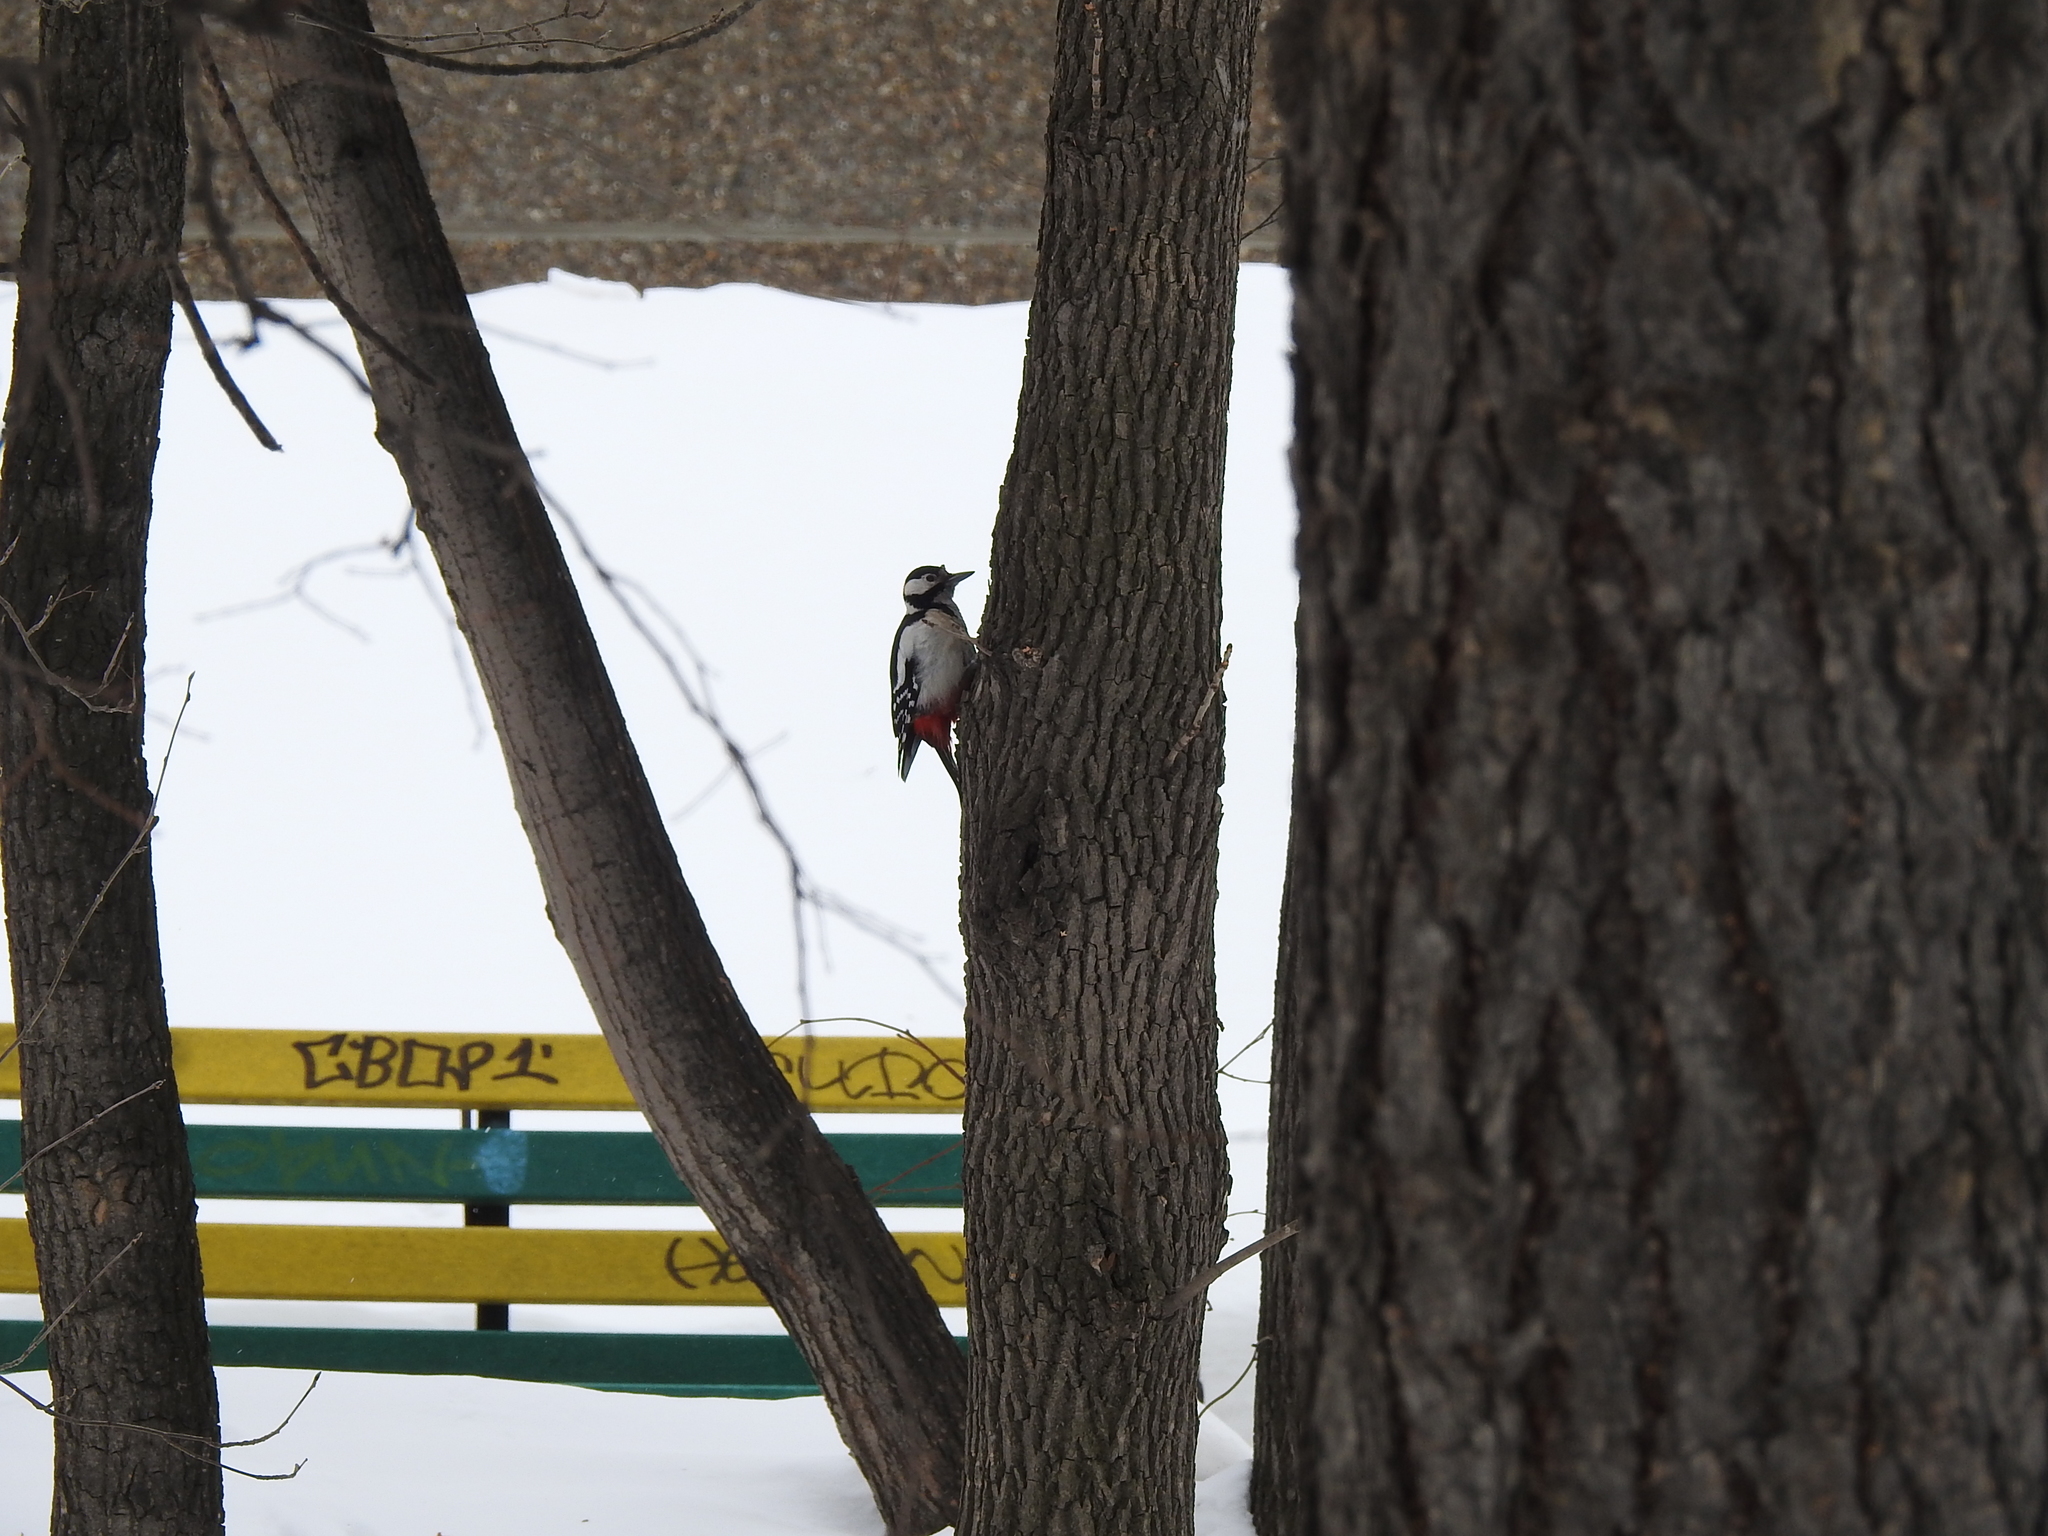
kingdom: Animalia
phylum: Chordata
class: Aves
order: Piciformes
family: Picidae
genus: Dendrocopos
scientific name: Dendrocopos major
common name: Great spotted woodpecker
